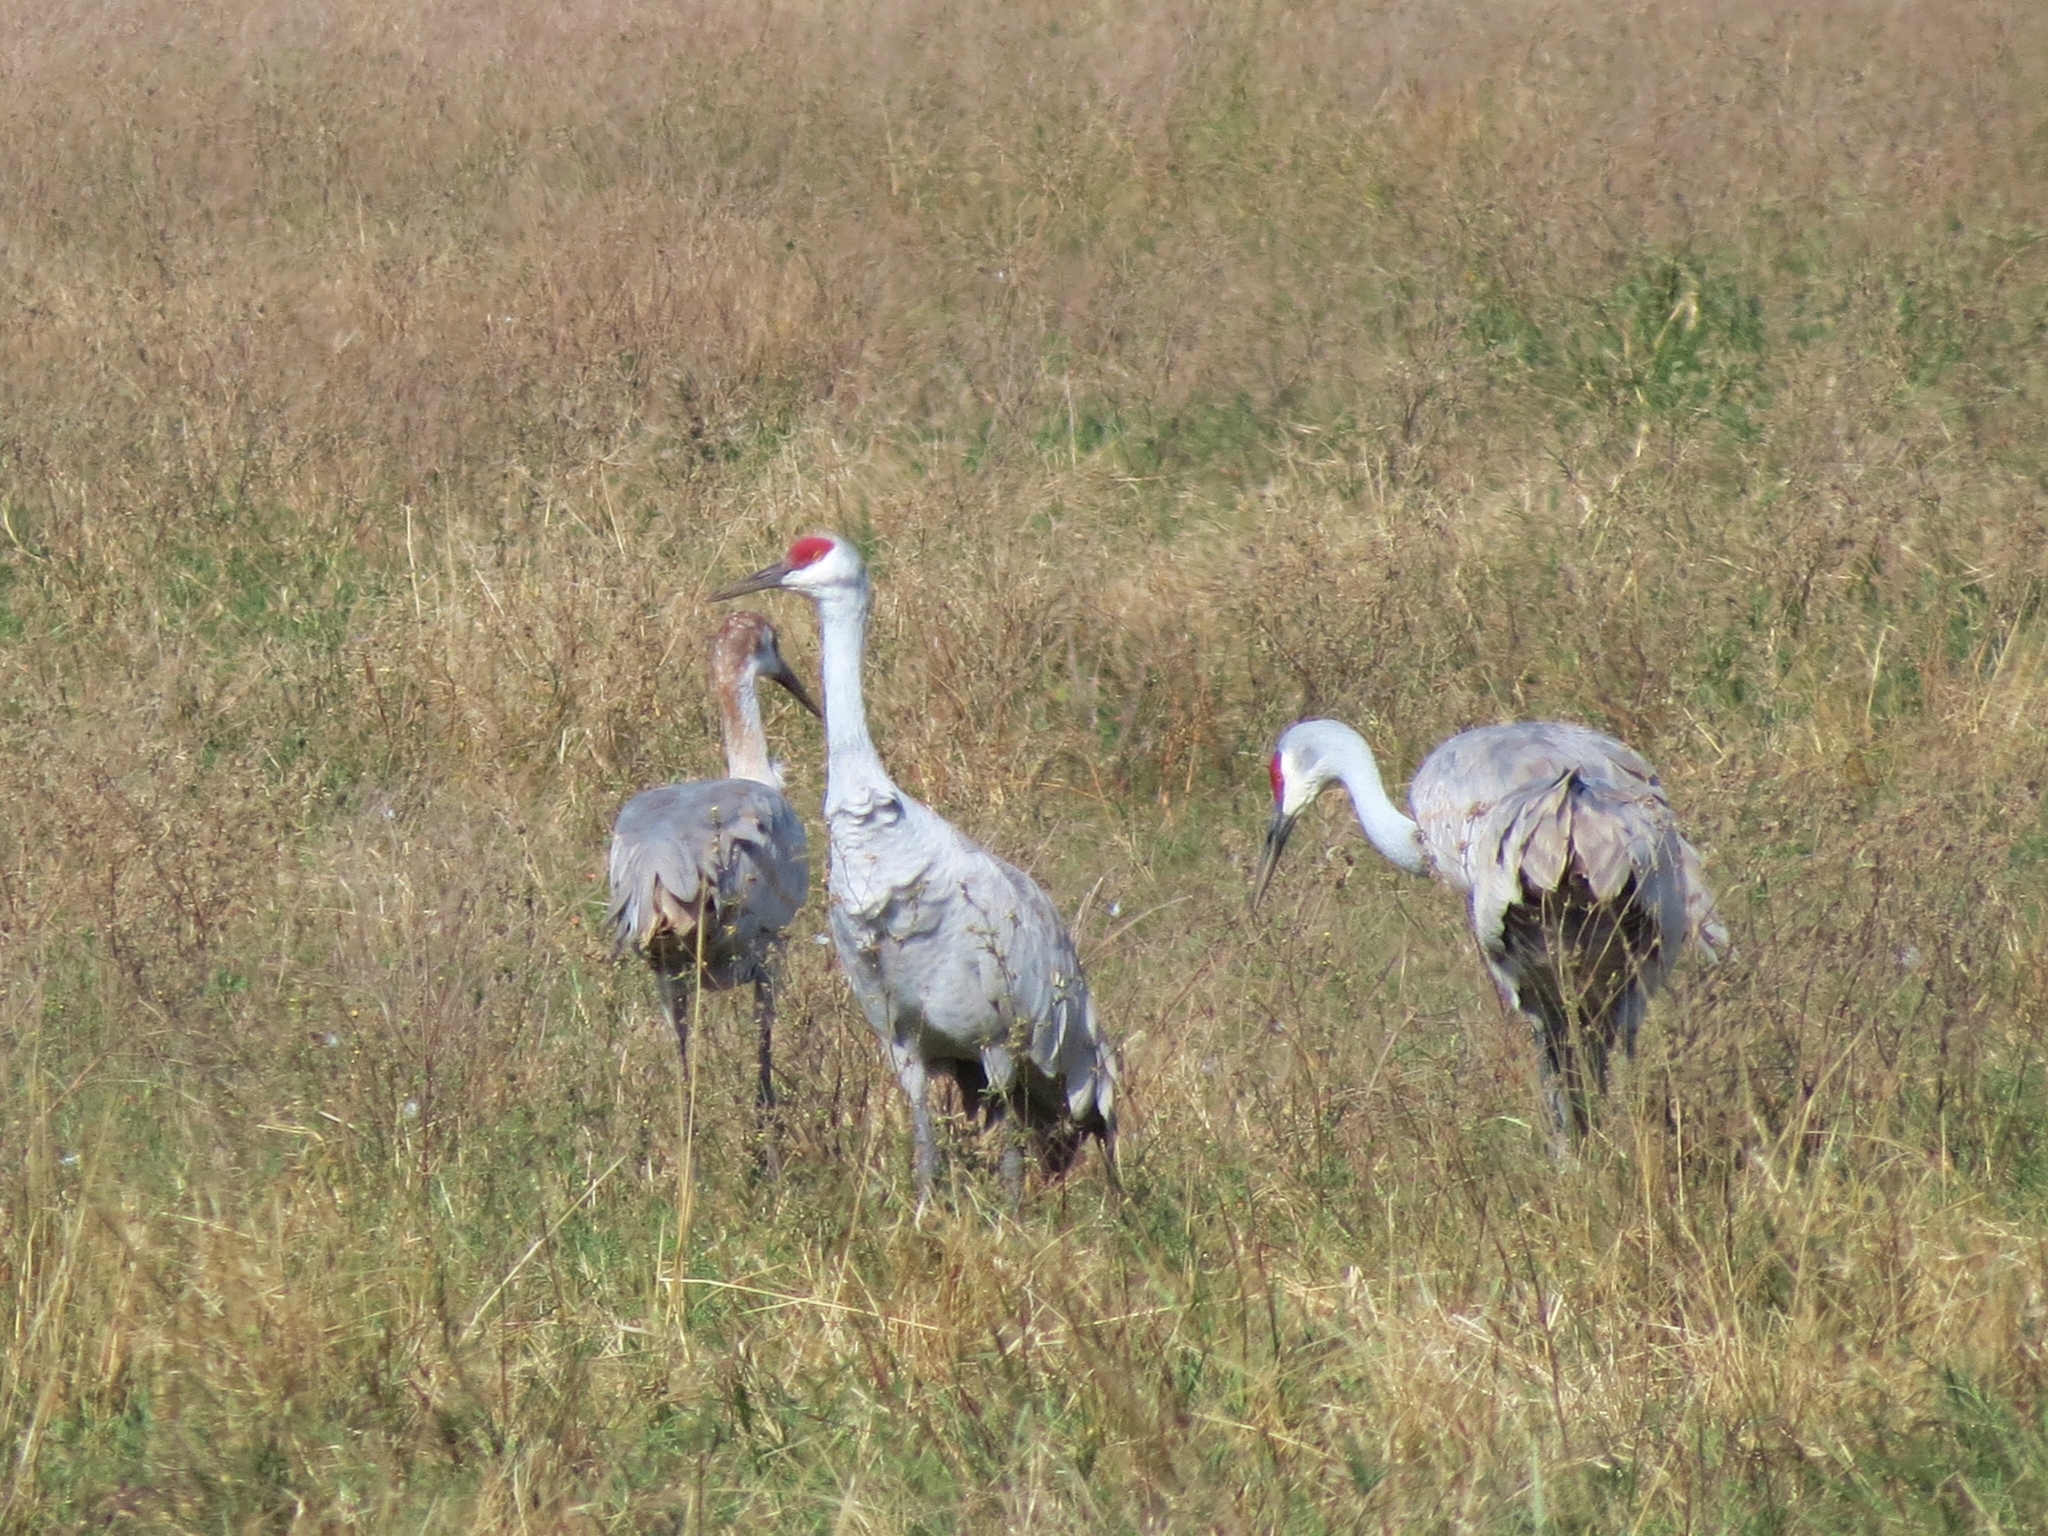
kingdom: Animalia
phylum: Chordata
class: Aves
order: Gruiformes
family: Gruidae
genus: Grus
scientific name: Grus canadensis
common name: Sandhill crane
